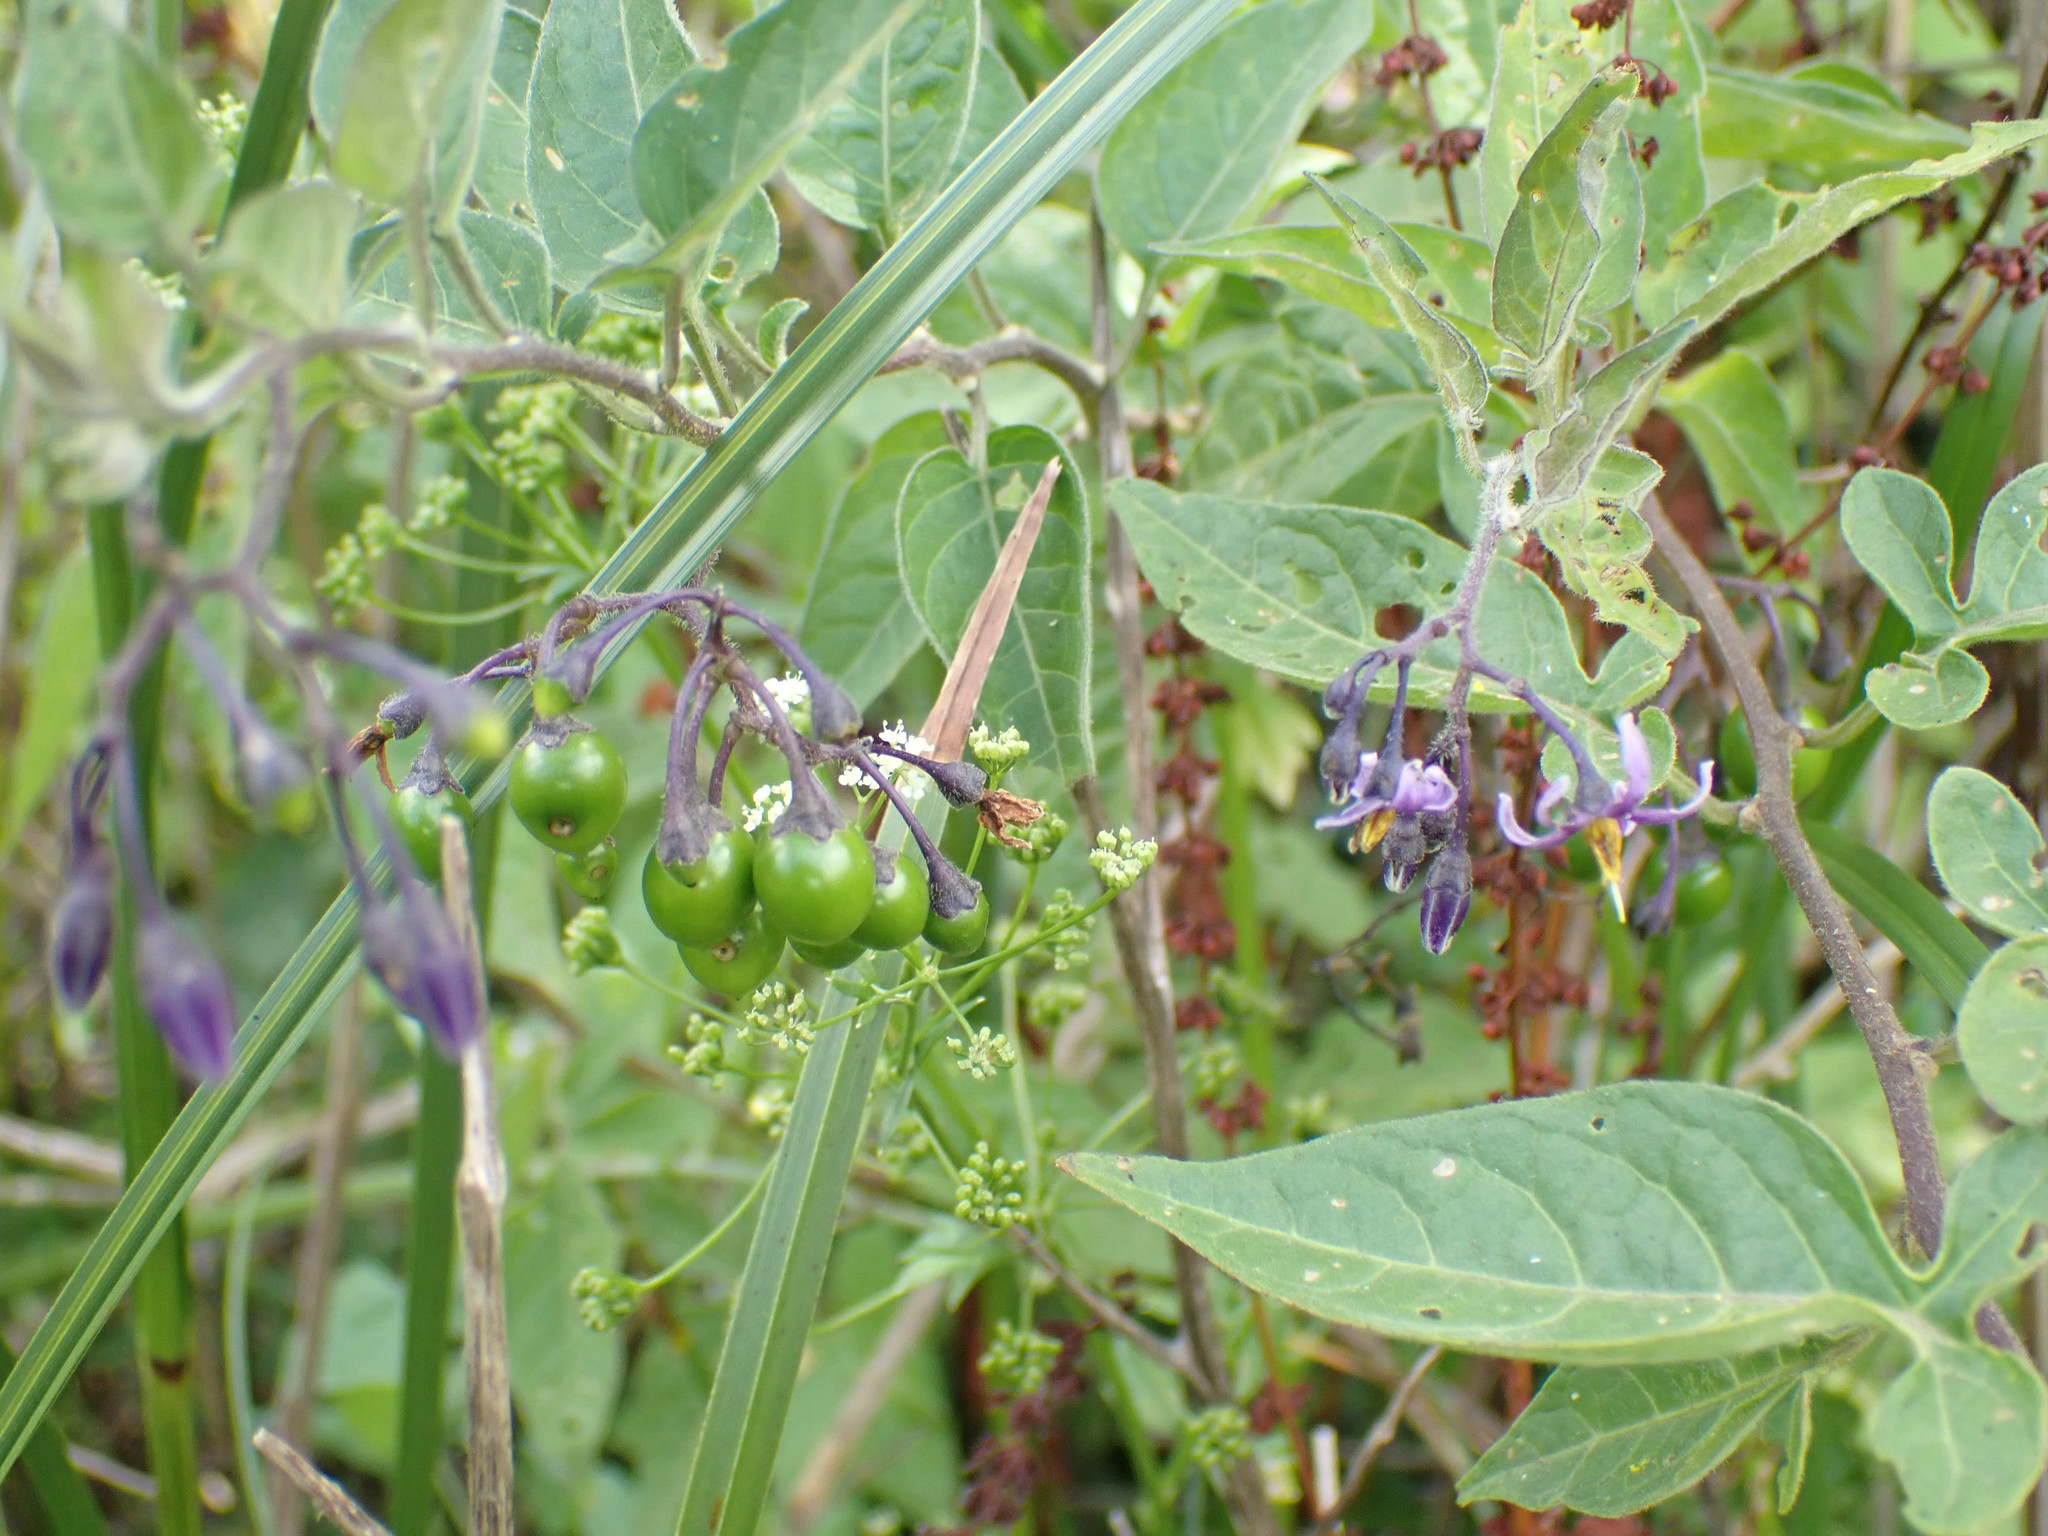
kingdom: Plantae
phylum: Tracheophyta
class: Magnoliopsida
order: Solanales
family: Solanaceae
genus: Solanum
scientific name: Solanum dulcamara
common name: Climbing nightshade
